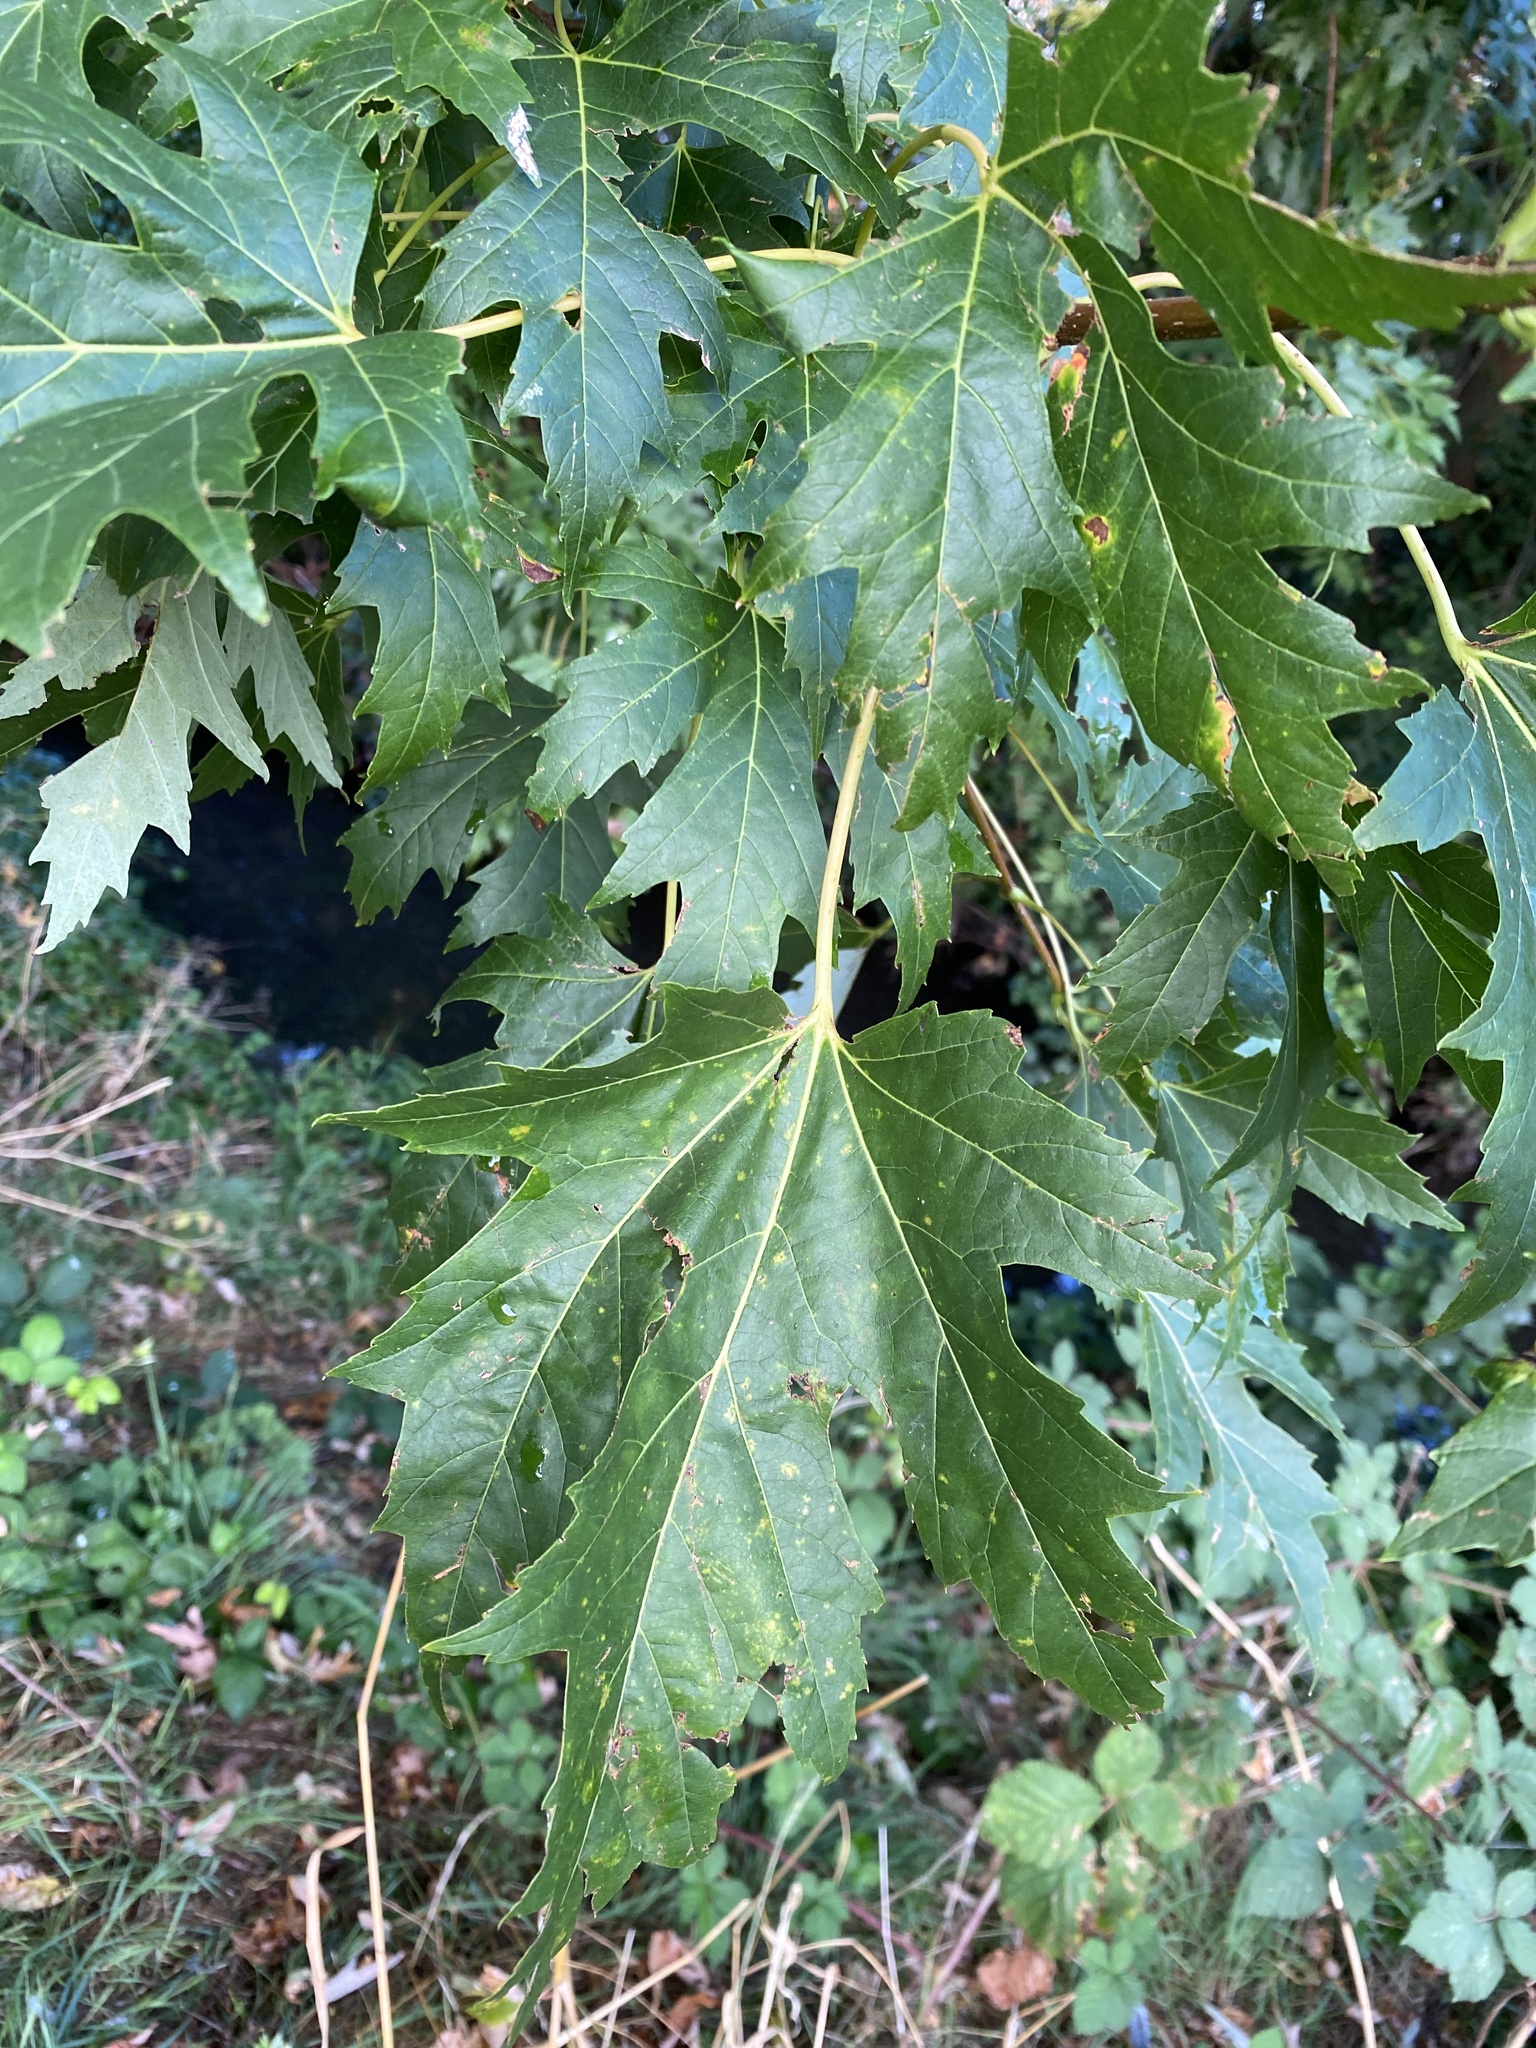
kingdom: Plantae
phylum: Tracheophyta
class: Magnoliopsida
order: Sapindales
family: Sapindaceae
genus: Acer
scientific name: Acer saccharinum
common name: Silver maple
